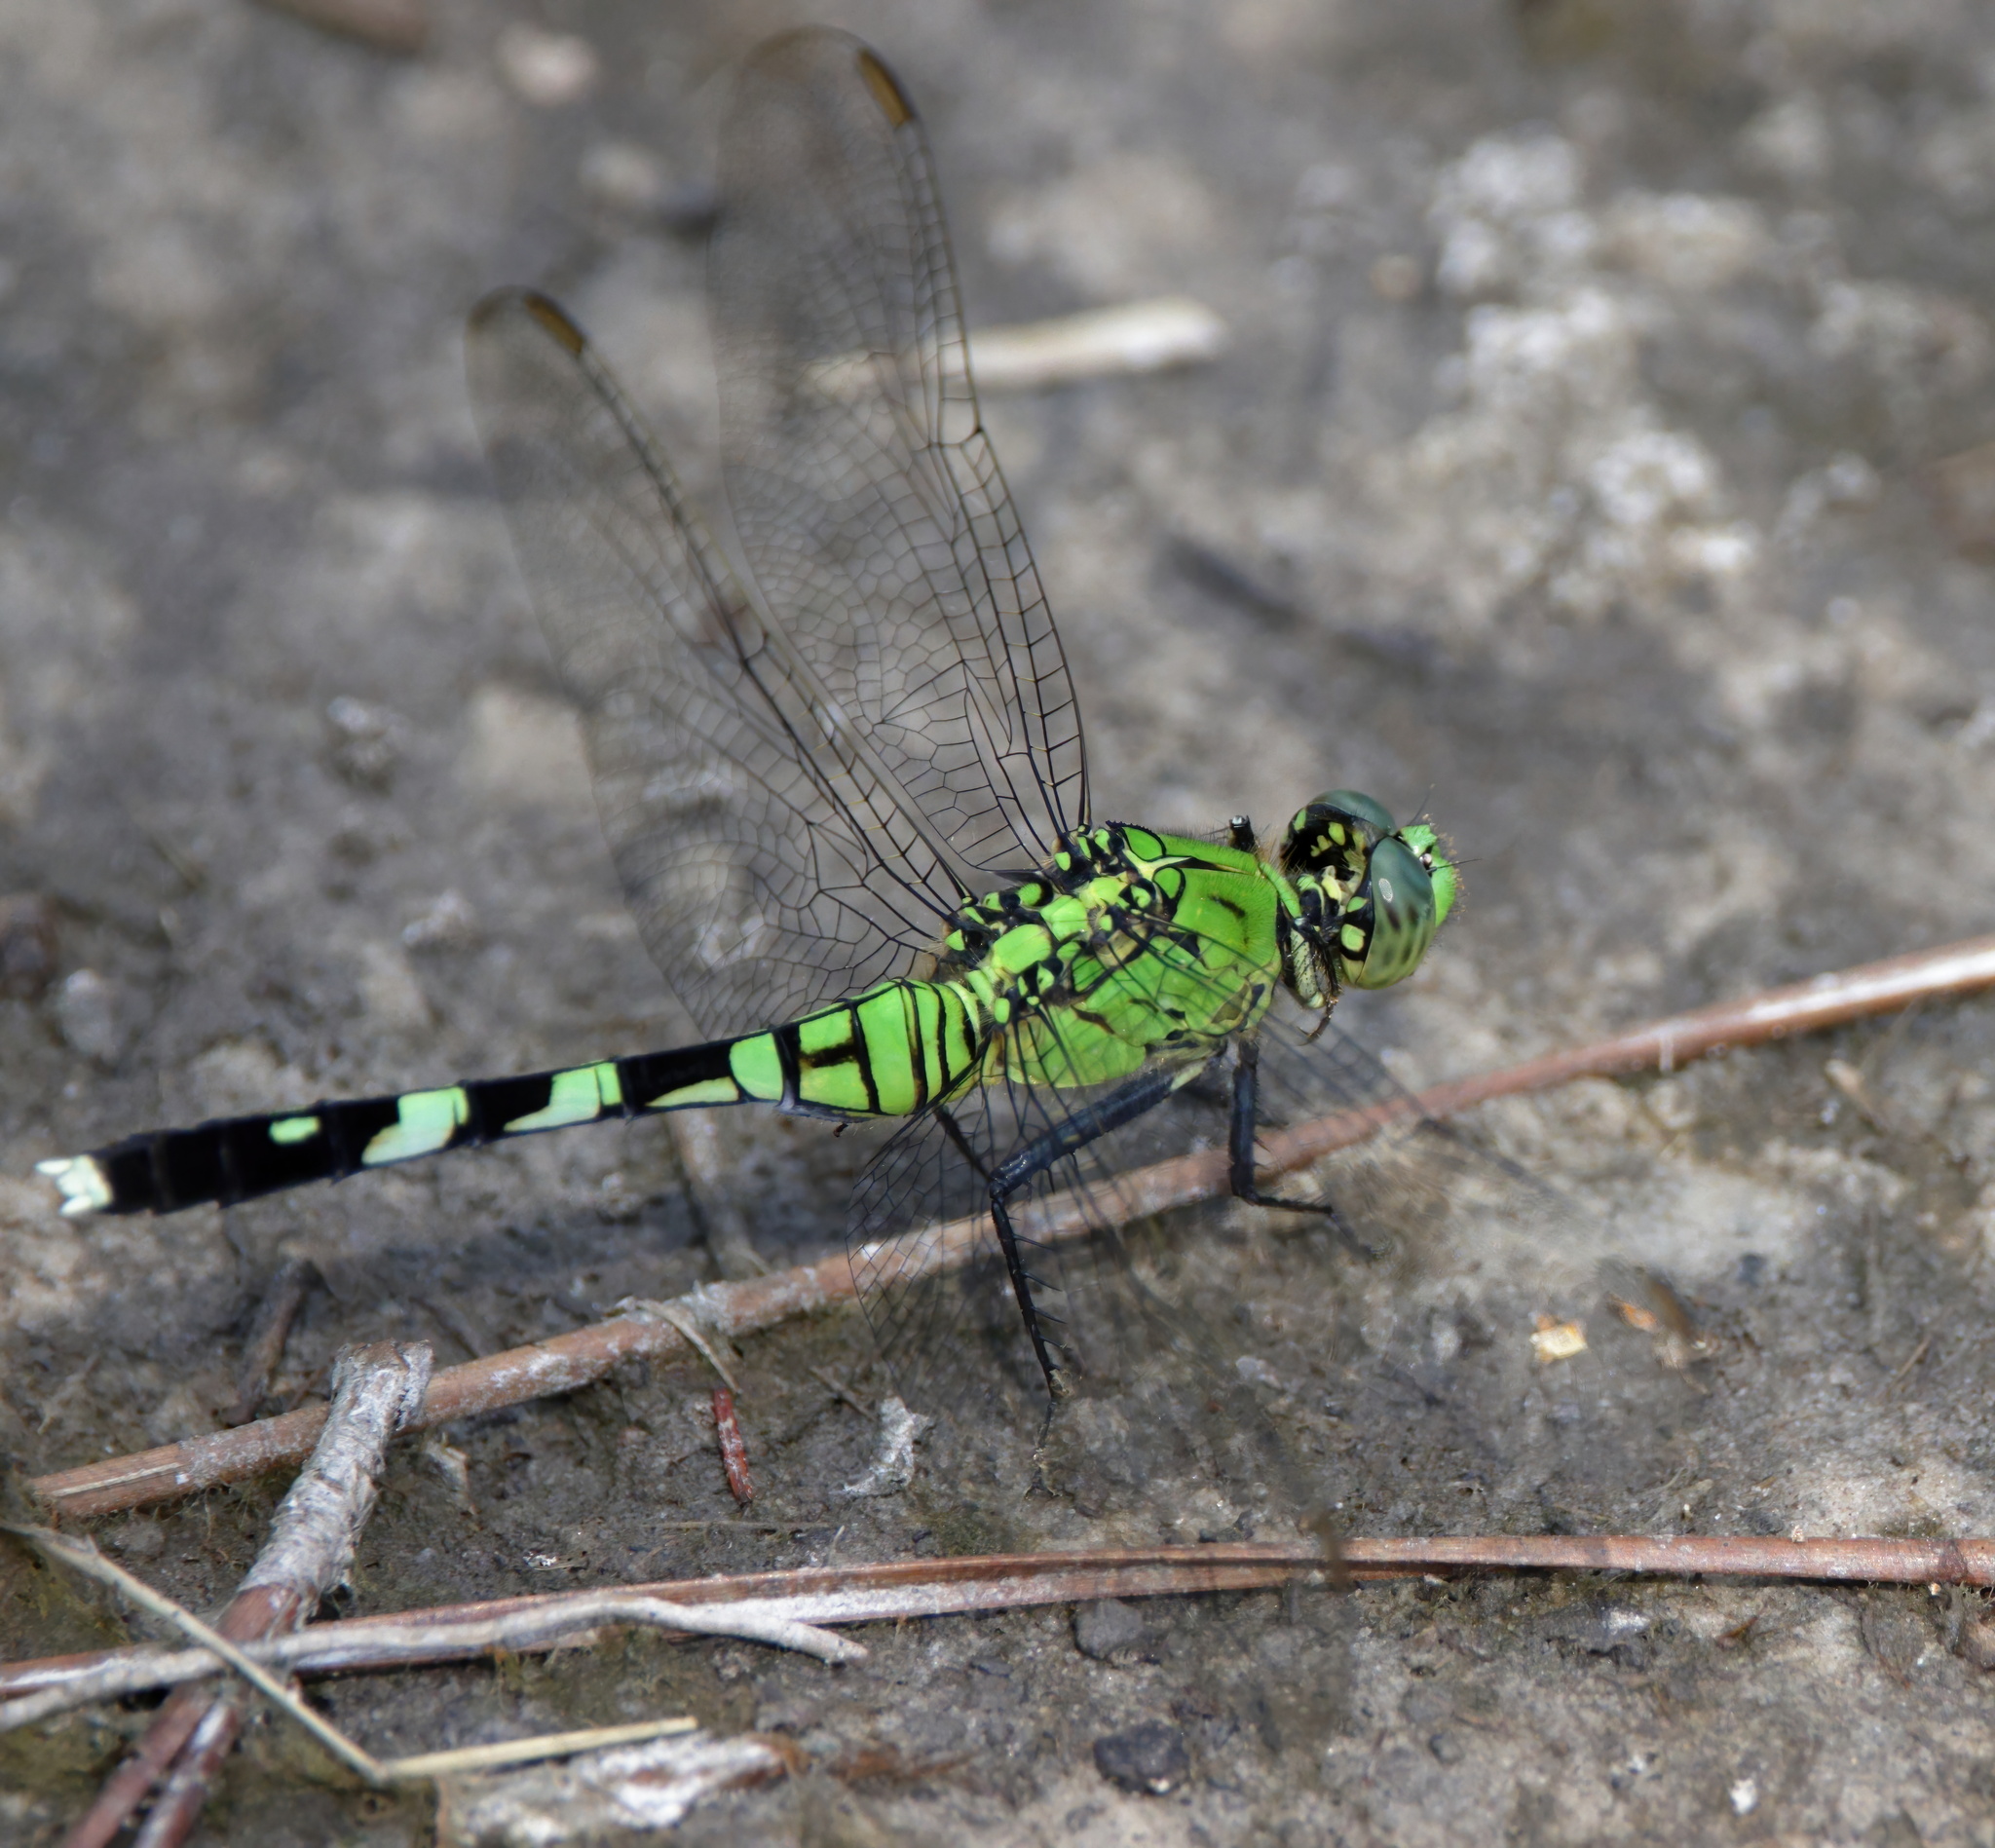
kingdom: Animalia
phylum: Arthropoda
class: Insecta
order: Odonata
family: Libellulidae
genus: Erythemis
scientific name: Erythemis simplicicollis
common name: Eastern pondhawk
